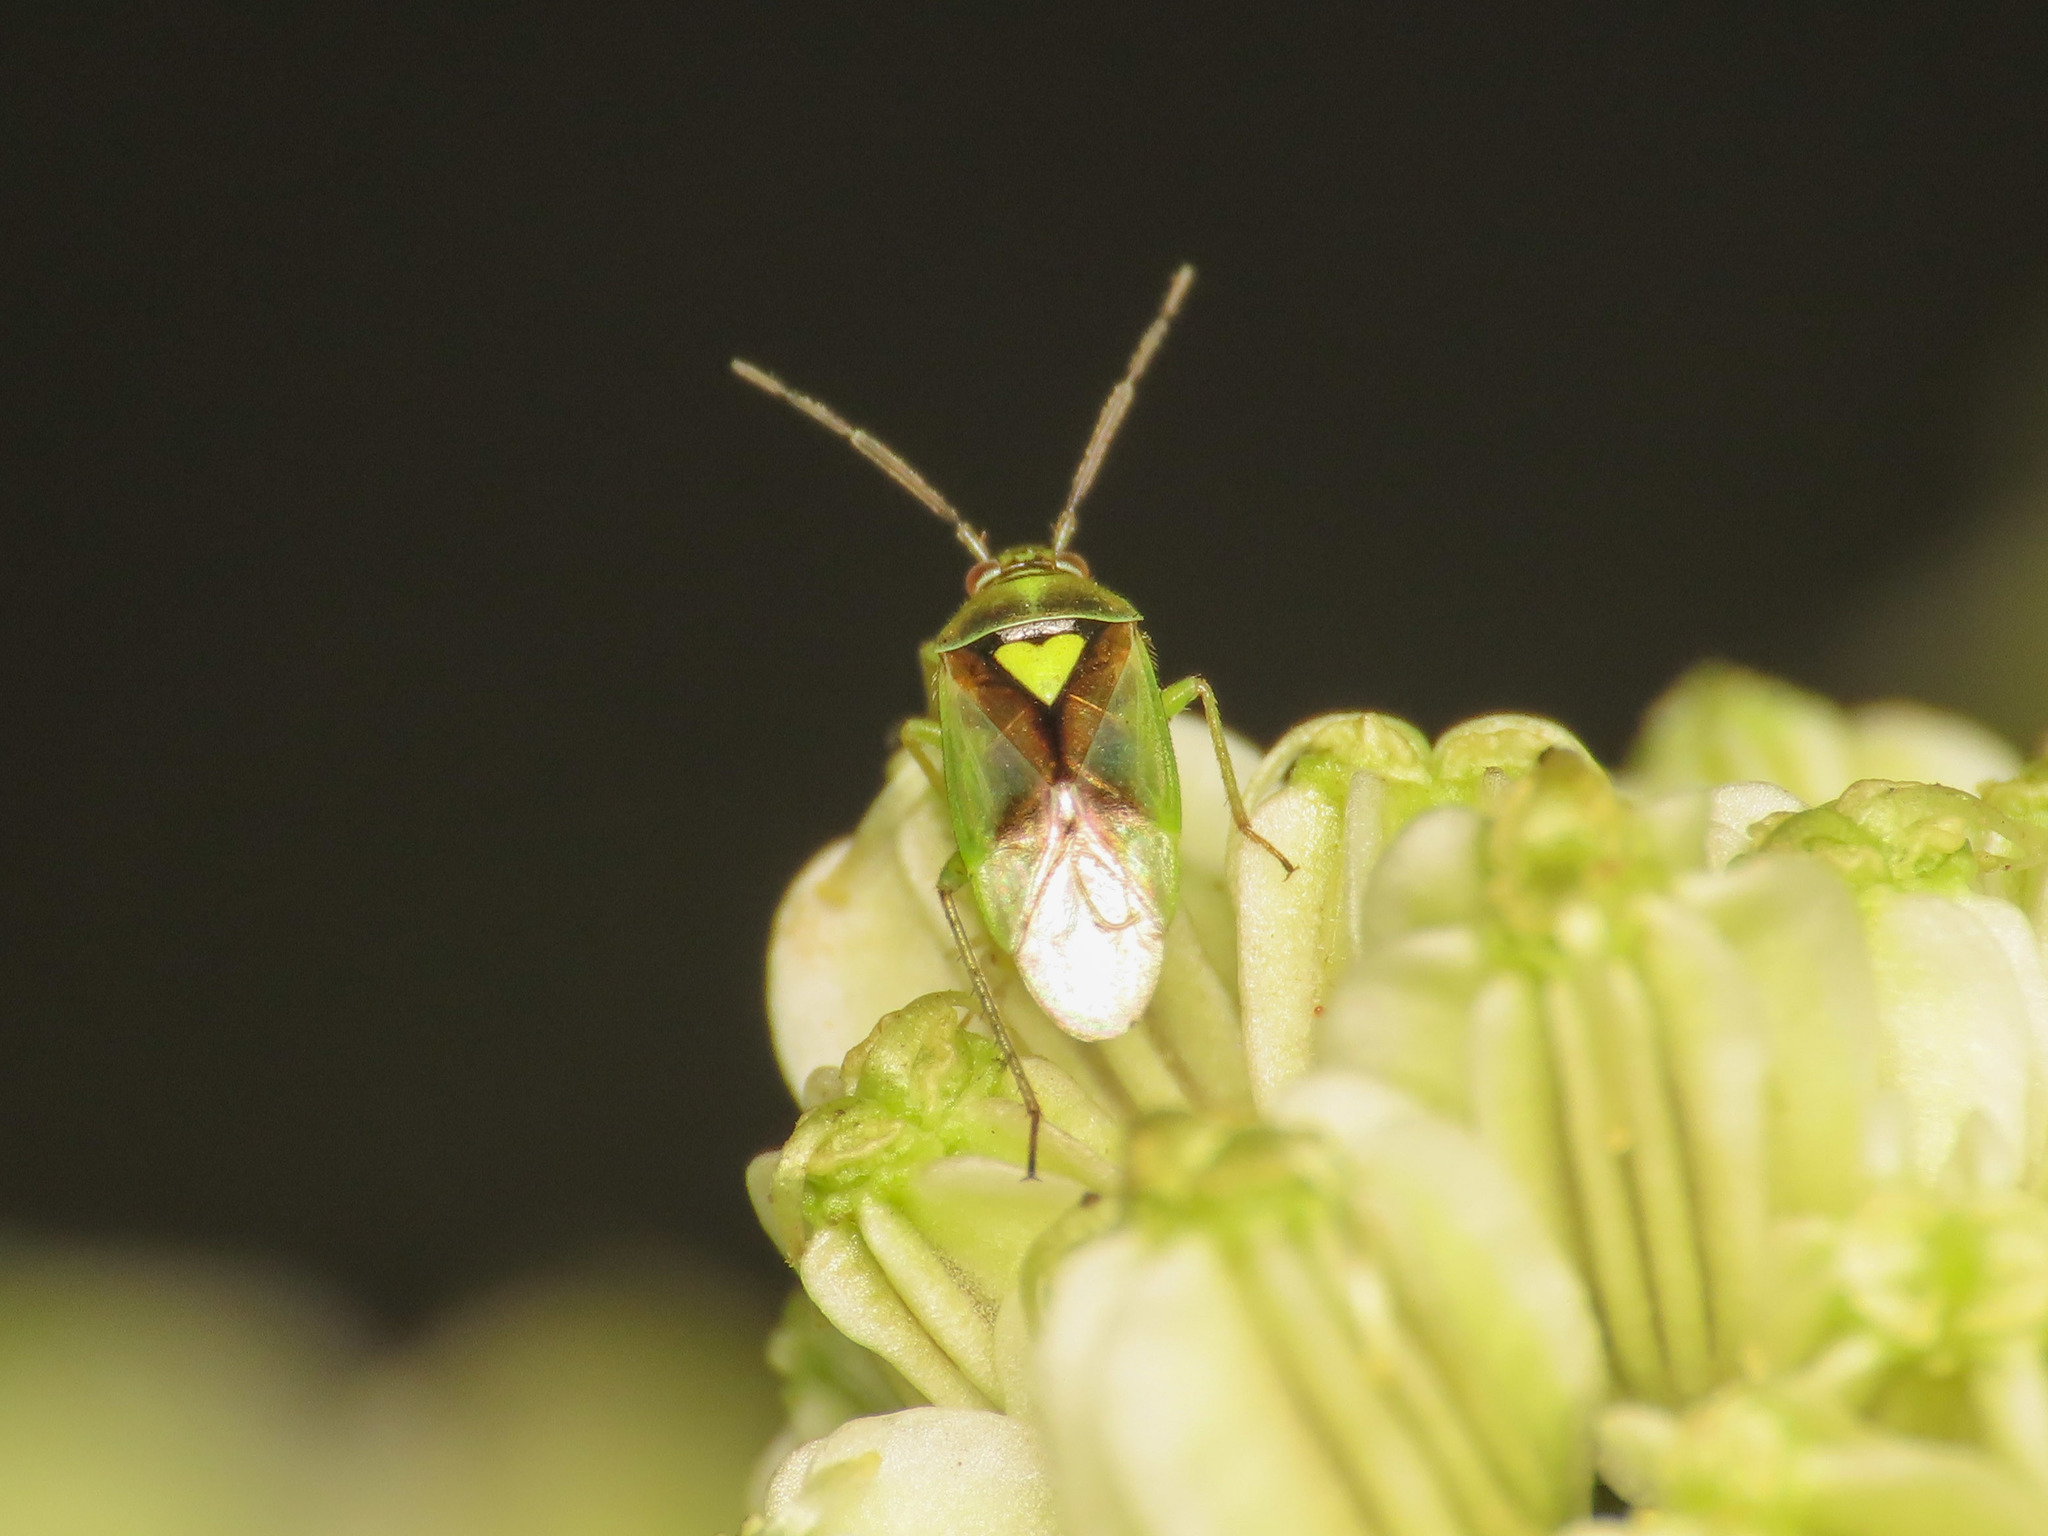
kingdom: Animalia
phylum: Arthropoda
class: Insecta
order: Hemiptera
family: Miridae
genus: Orthops
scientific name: Orthops campestris
